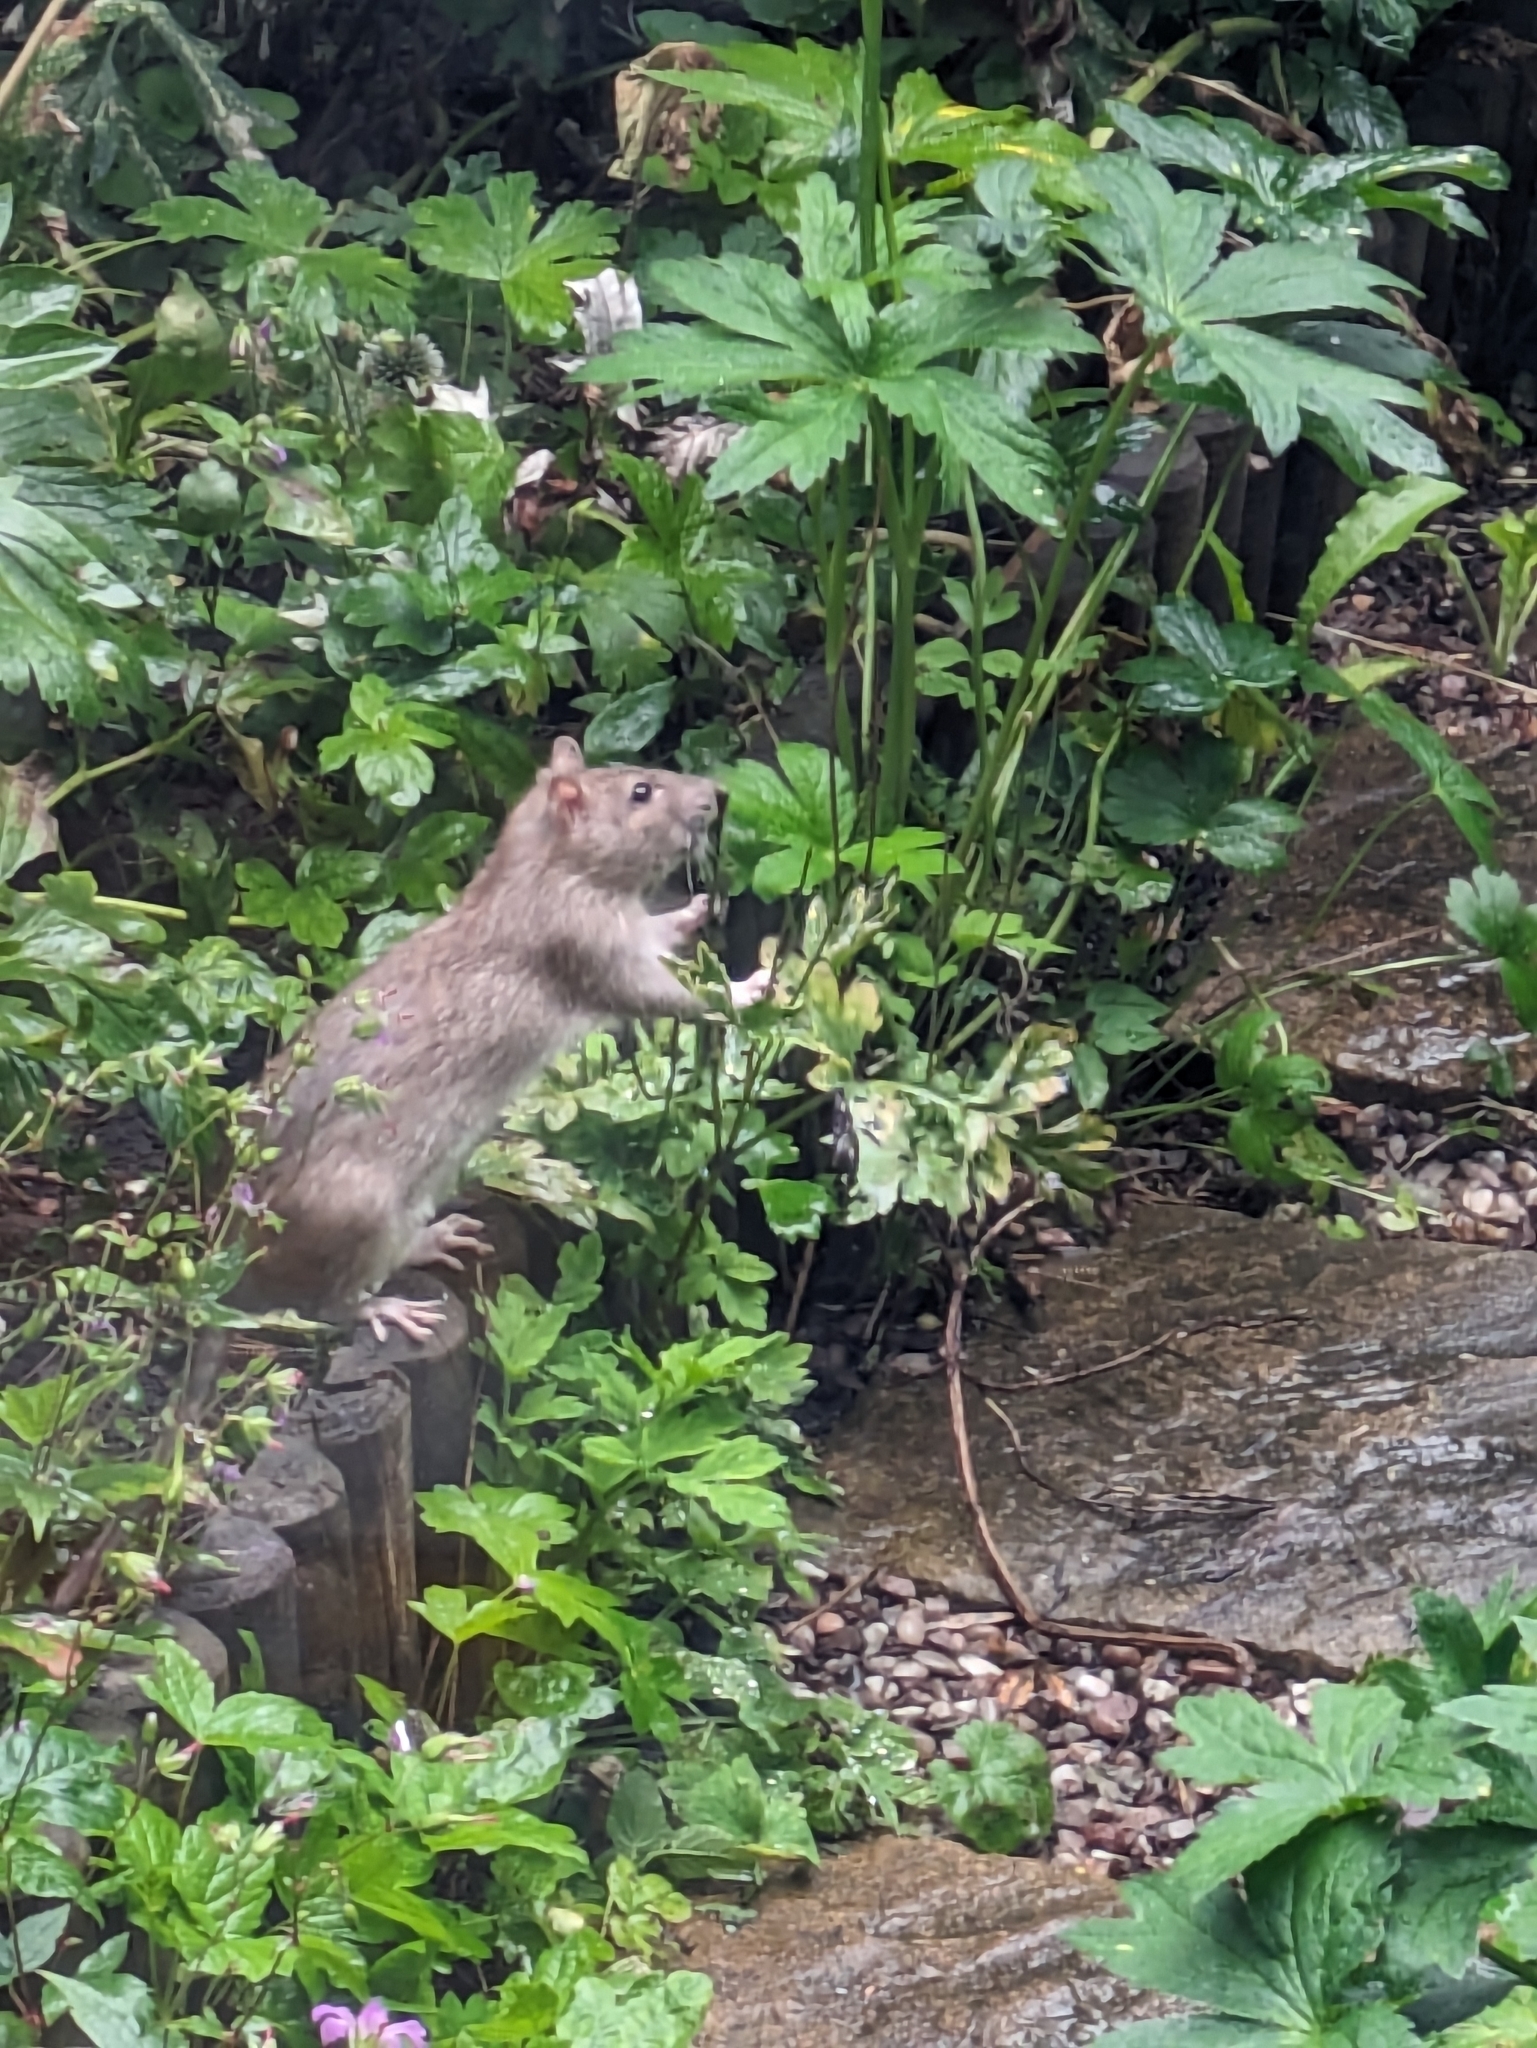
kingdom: Animalia
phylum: Chordata
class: Mammalia
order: Rodentia
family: Muridae
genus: Rattus
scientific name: Rattus norvegicus
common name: Brown rat
